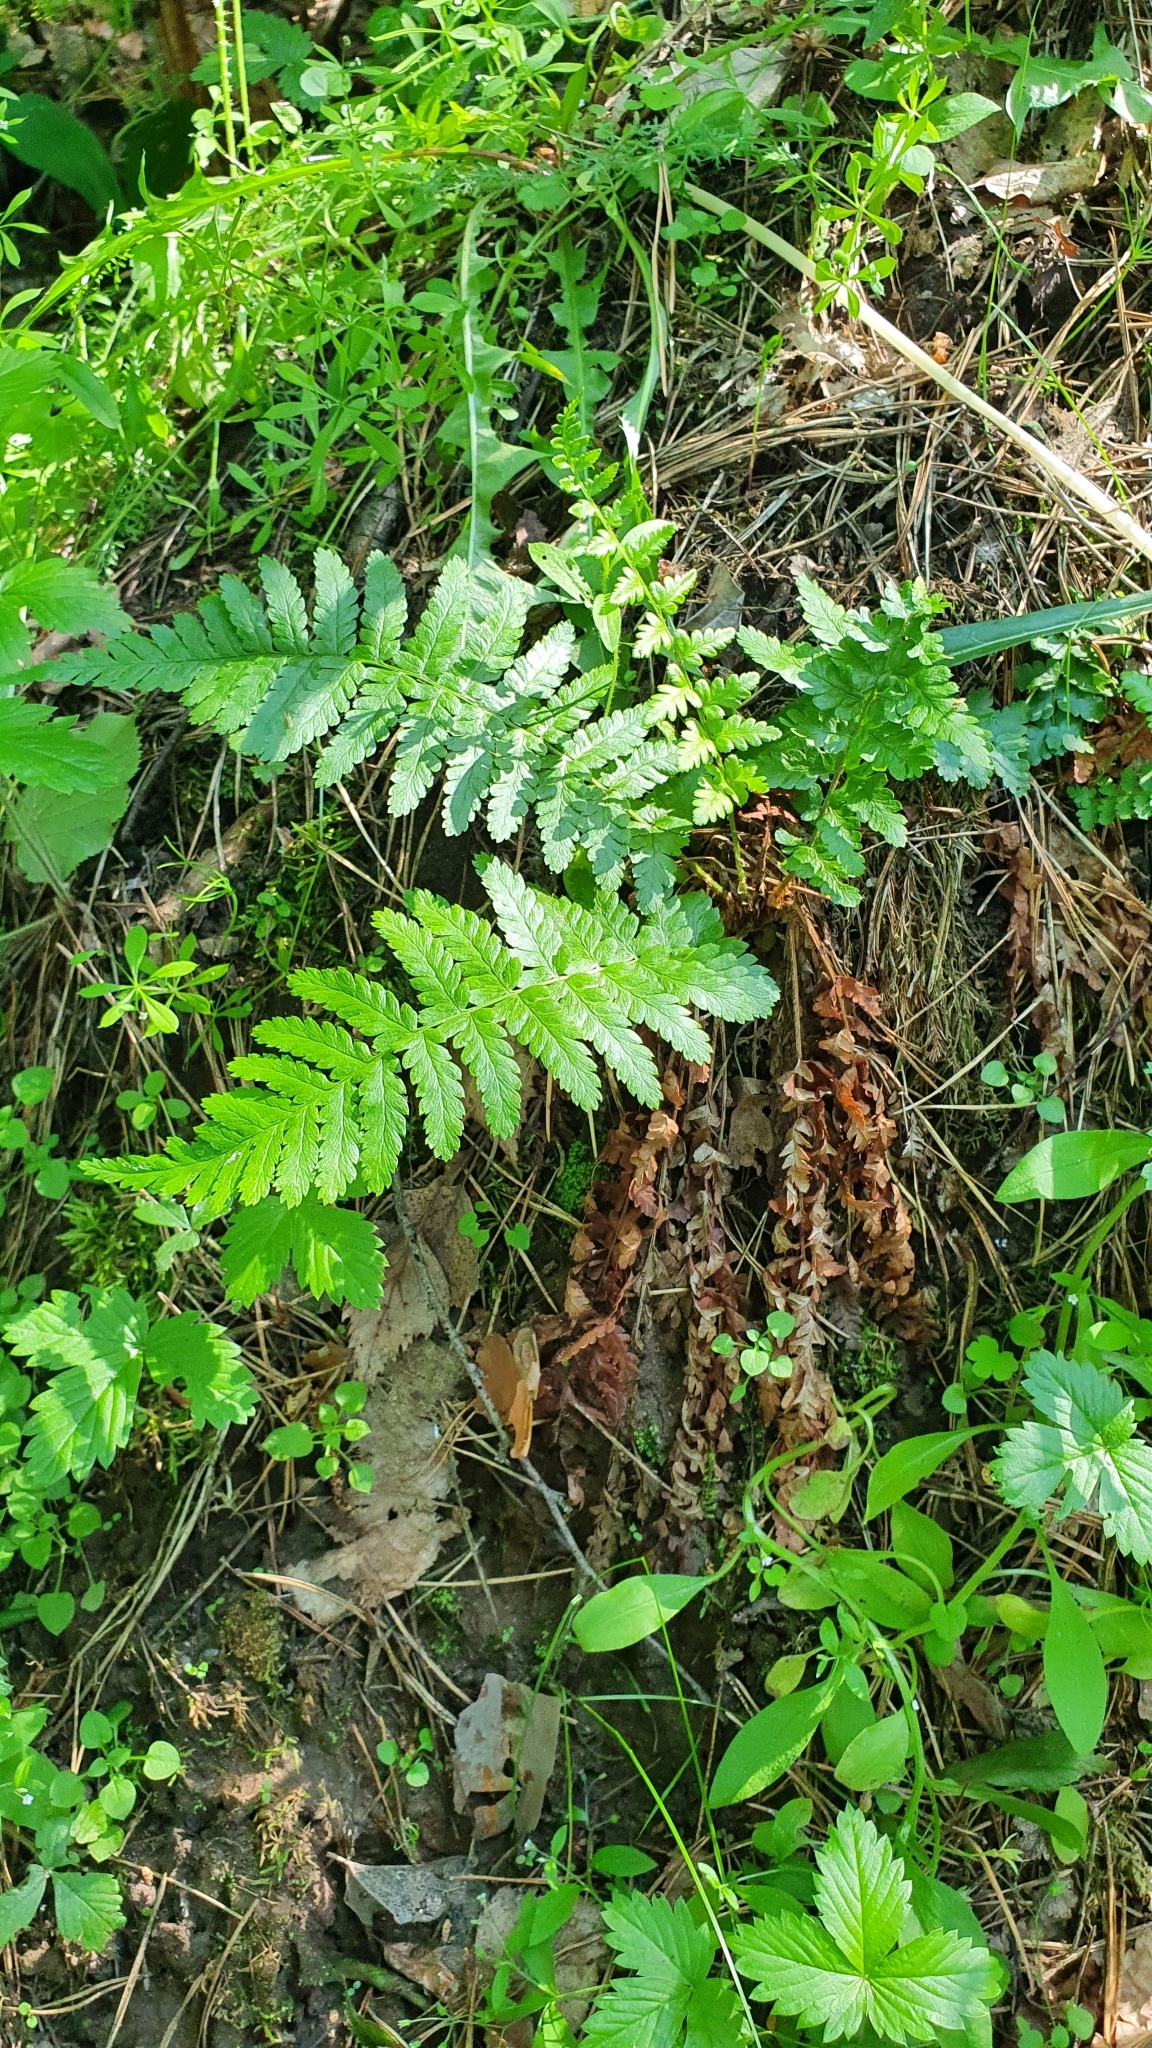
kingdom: Plantae
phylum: Tracheophyta
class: Polypodiopsida
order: Polypodiales
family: Dryopteridaceae
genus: Dryopteris
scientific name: Dryopteris filix-mas
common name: Male fern
